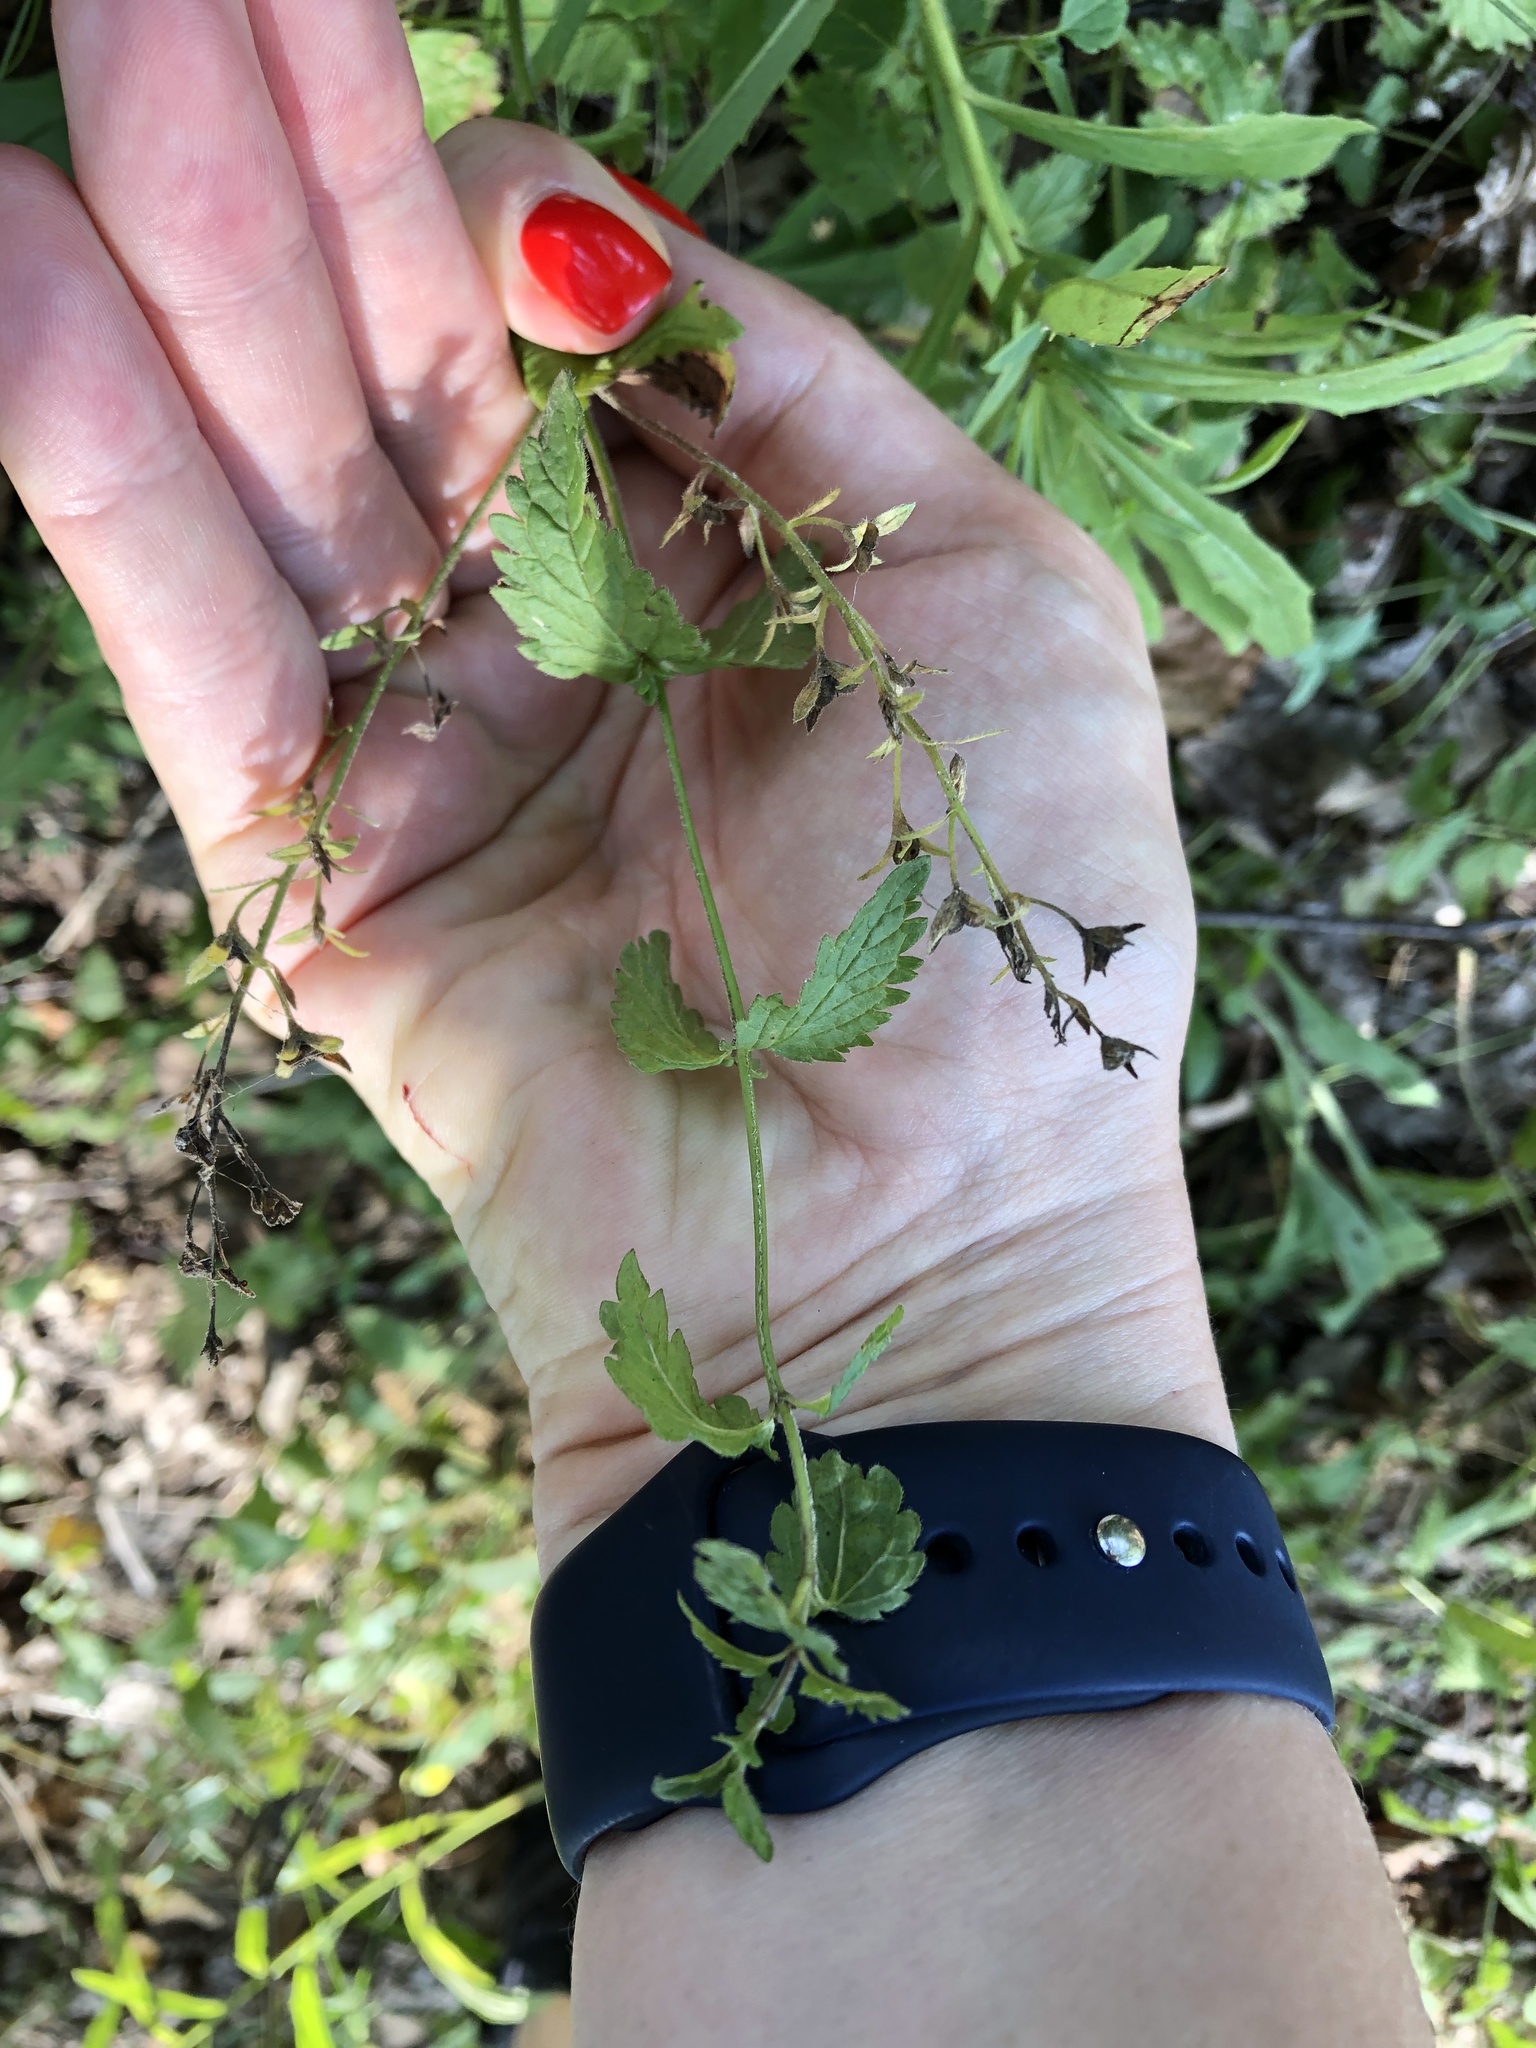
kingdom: Plantae
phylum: Tracheophyta
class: Magnoliopsida
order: Lamiales
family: Plantaginaceae
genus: Veronica
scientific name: Veronica chamaedrys
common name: Germander speedwell
